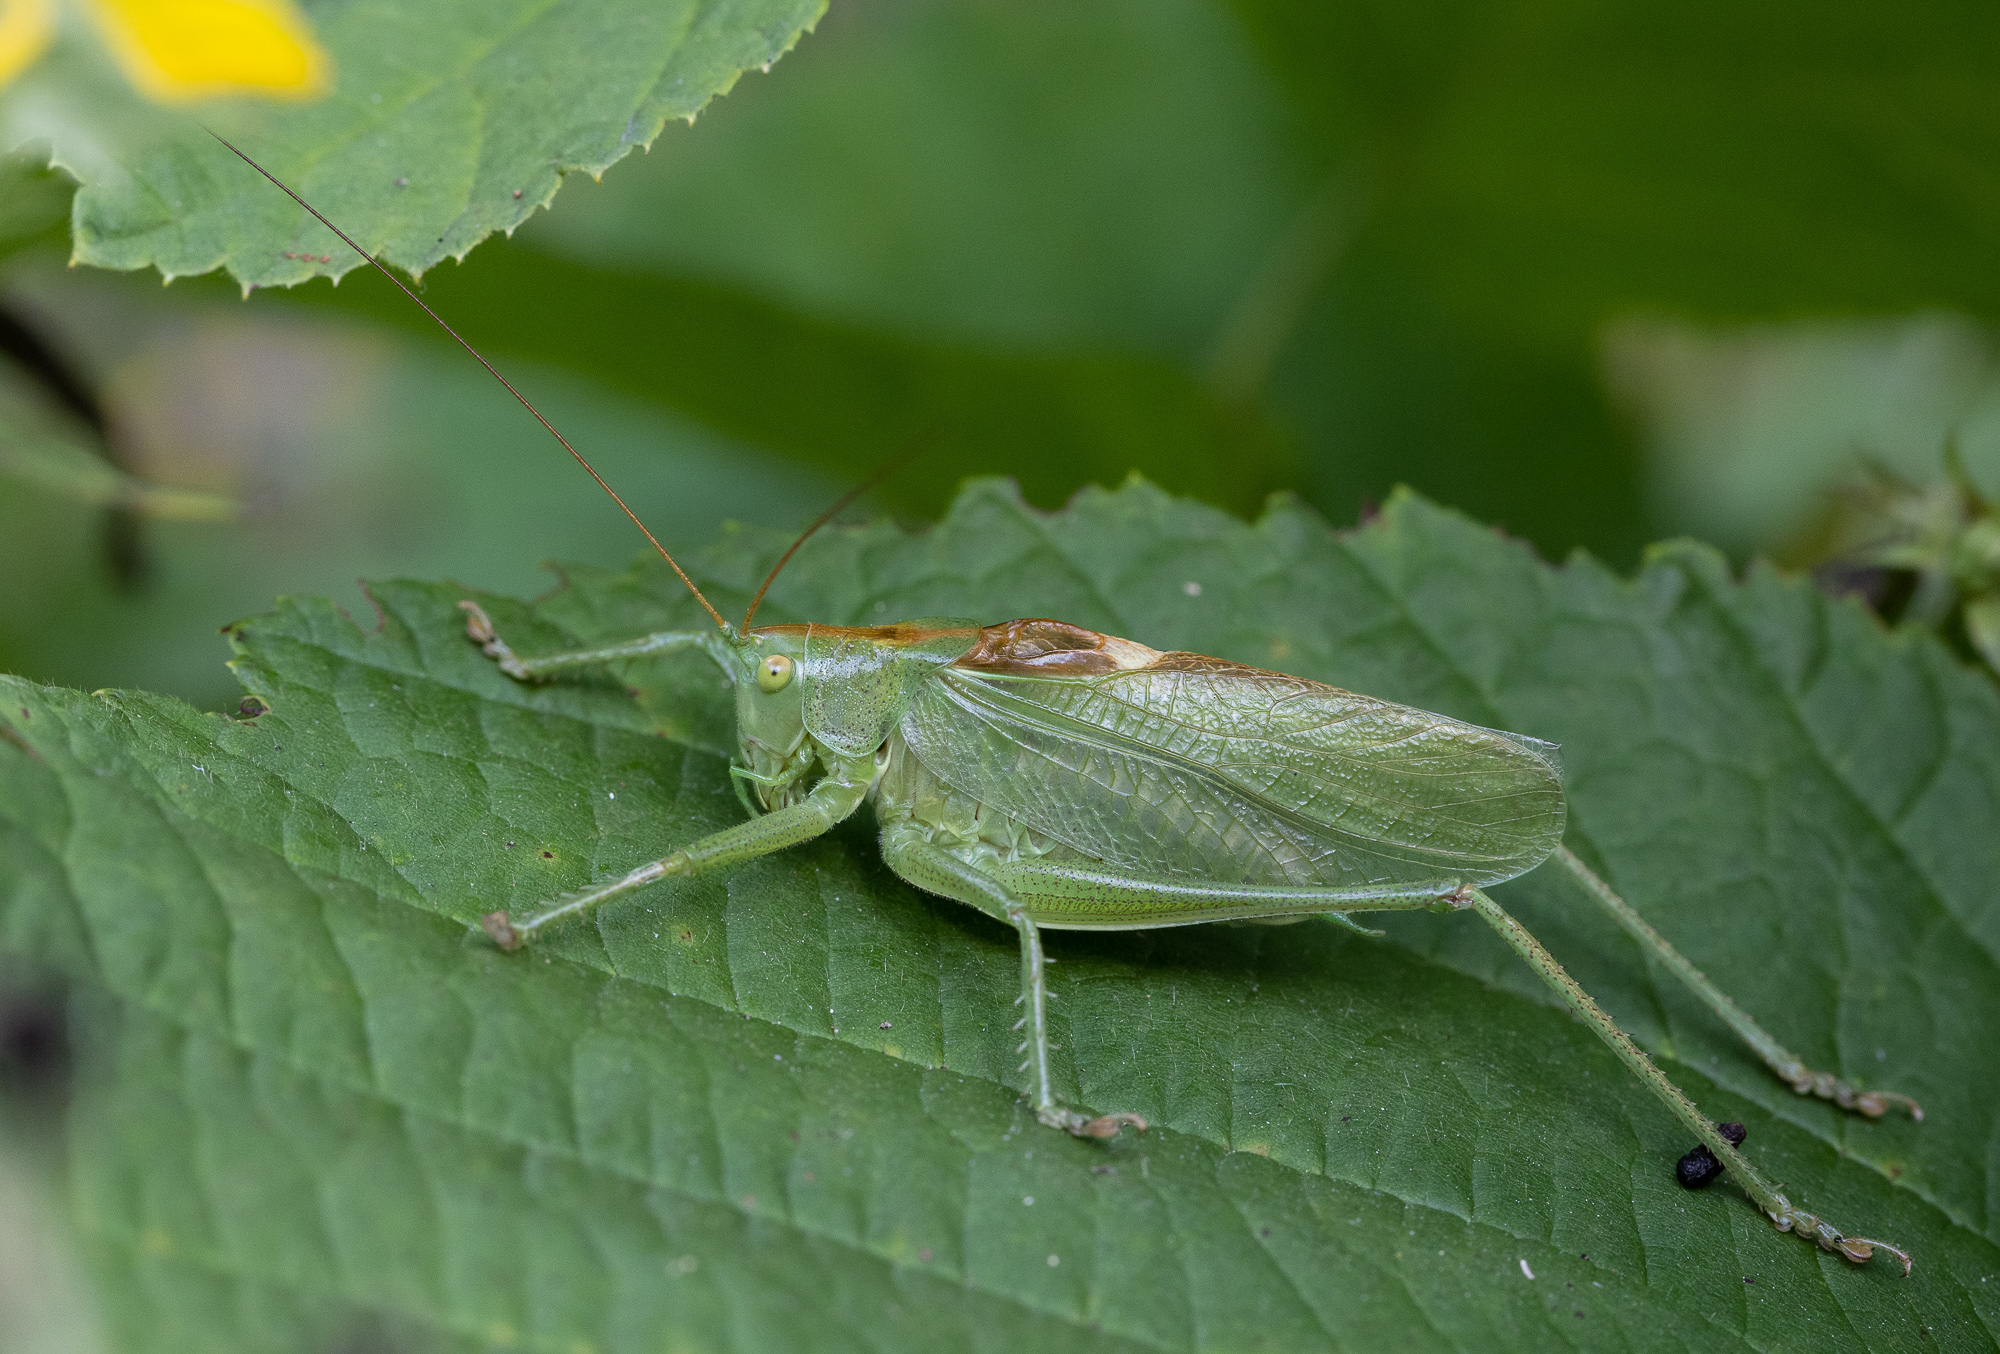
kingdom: Animalia
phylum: Arthropoda
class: Insecta
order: Orthoptera
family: Tettigoniidae
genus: Tettigonia
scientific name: Tettigonia cantans
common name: Upland green bush-cricket
